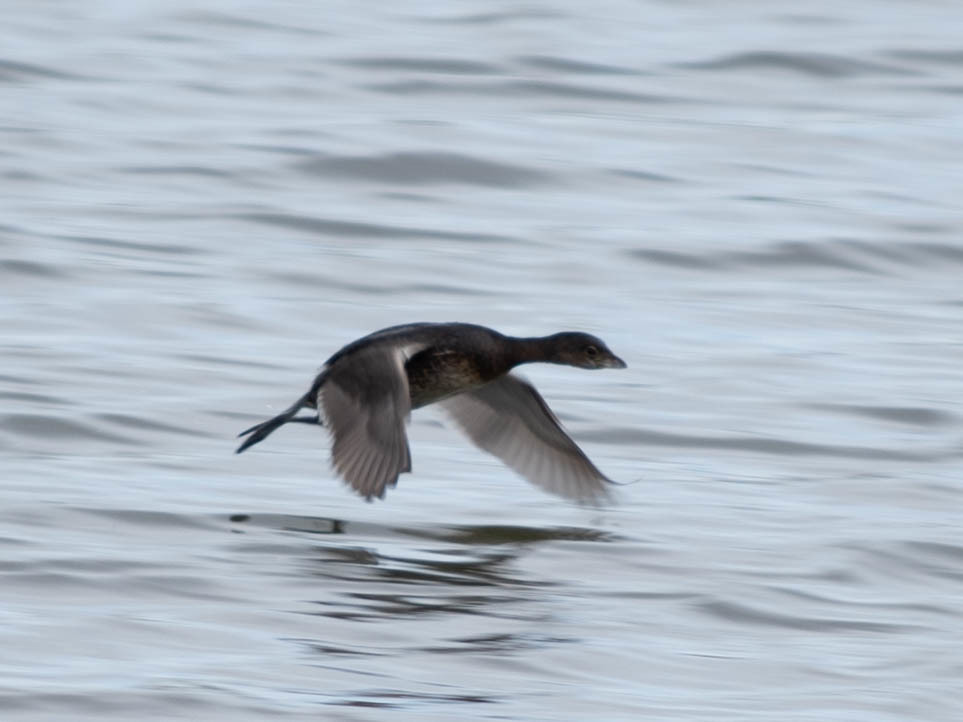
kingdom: Animalia
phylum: Chordata
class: Aves
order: Podicipediformes
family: Podicipedidae
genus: Podilymbus
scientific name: Podilymbus podiceps
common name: Pied-billed grebe
